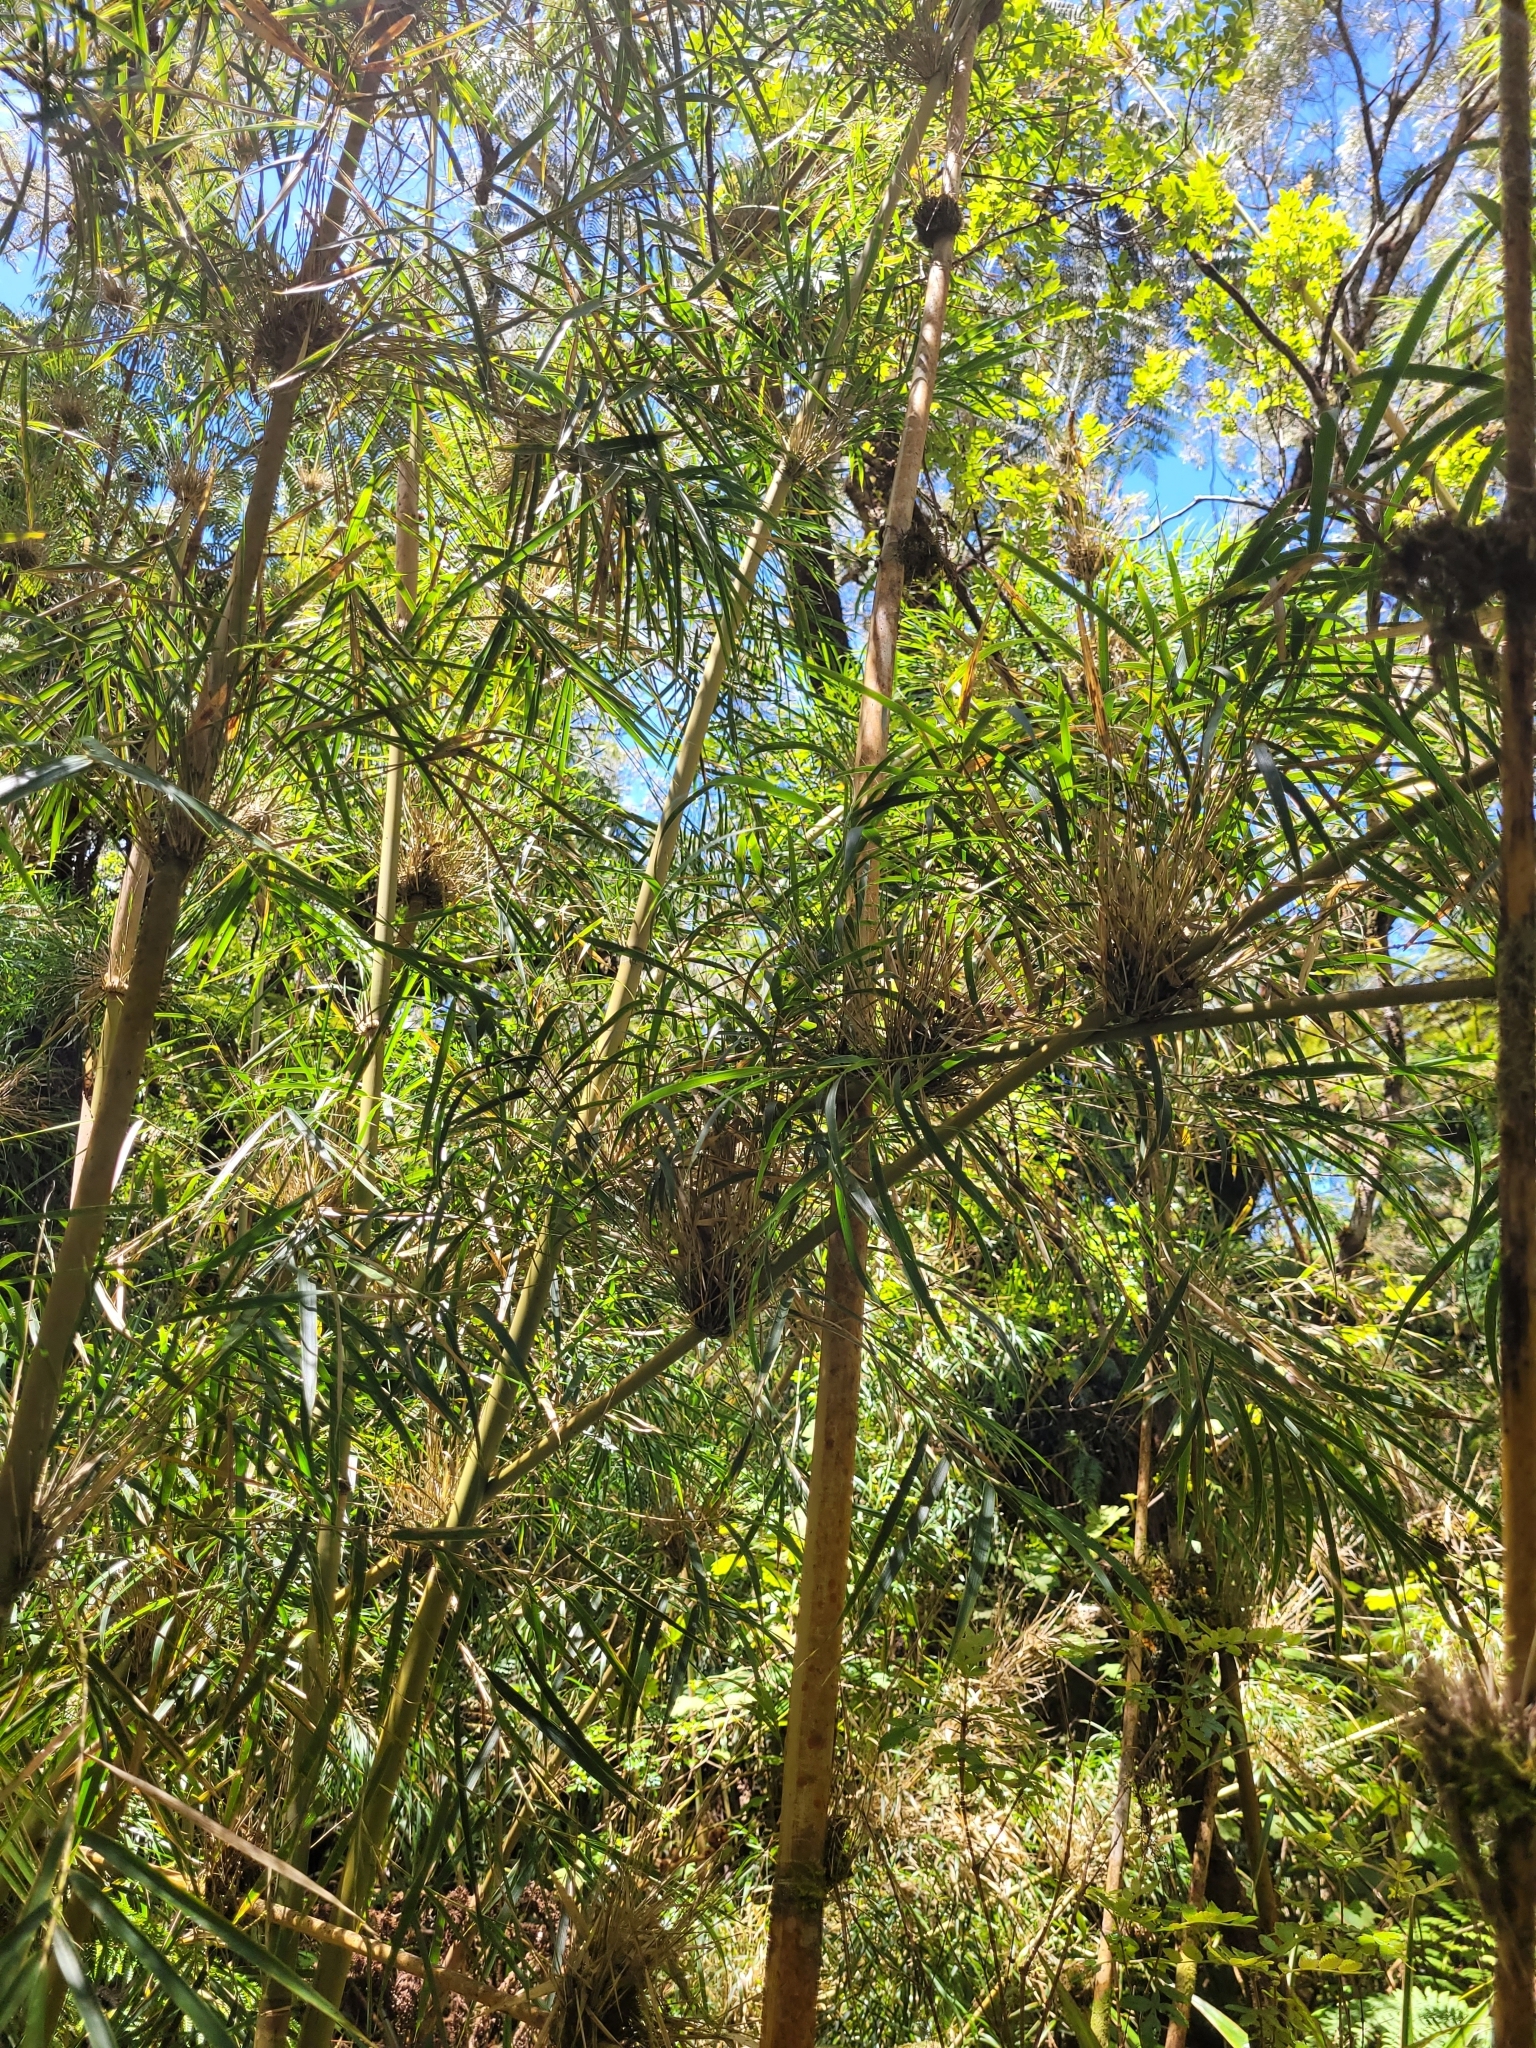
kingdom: Plantae
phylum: Tracheophyta
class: Liliopsida
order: Poales
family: Poaceae
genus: Nastus
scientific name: Nastus borbonicus
